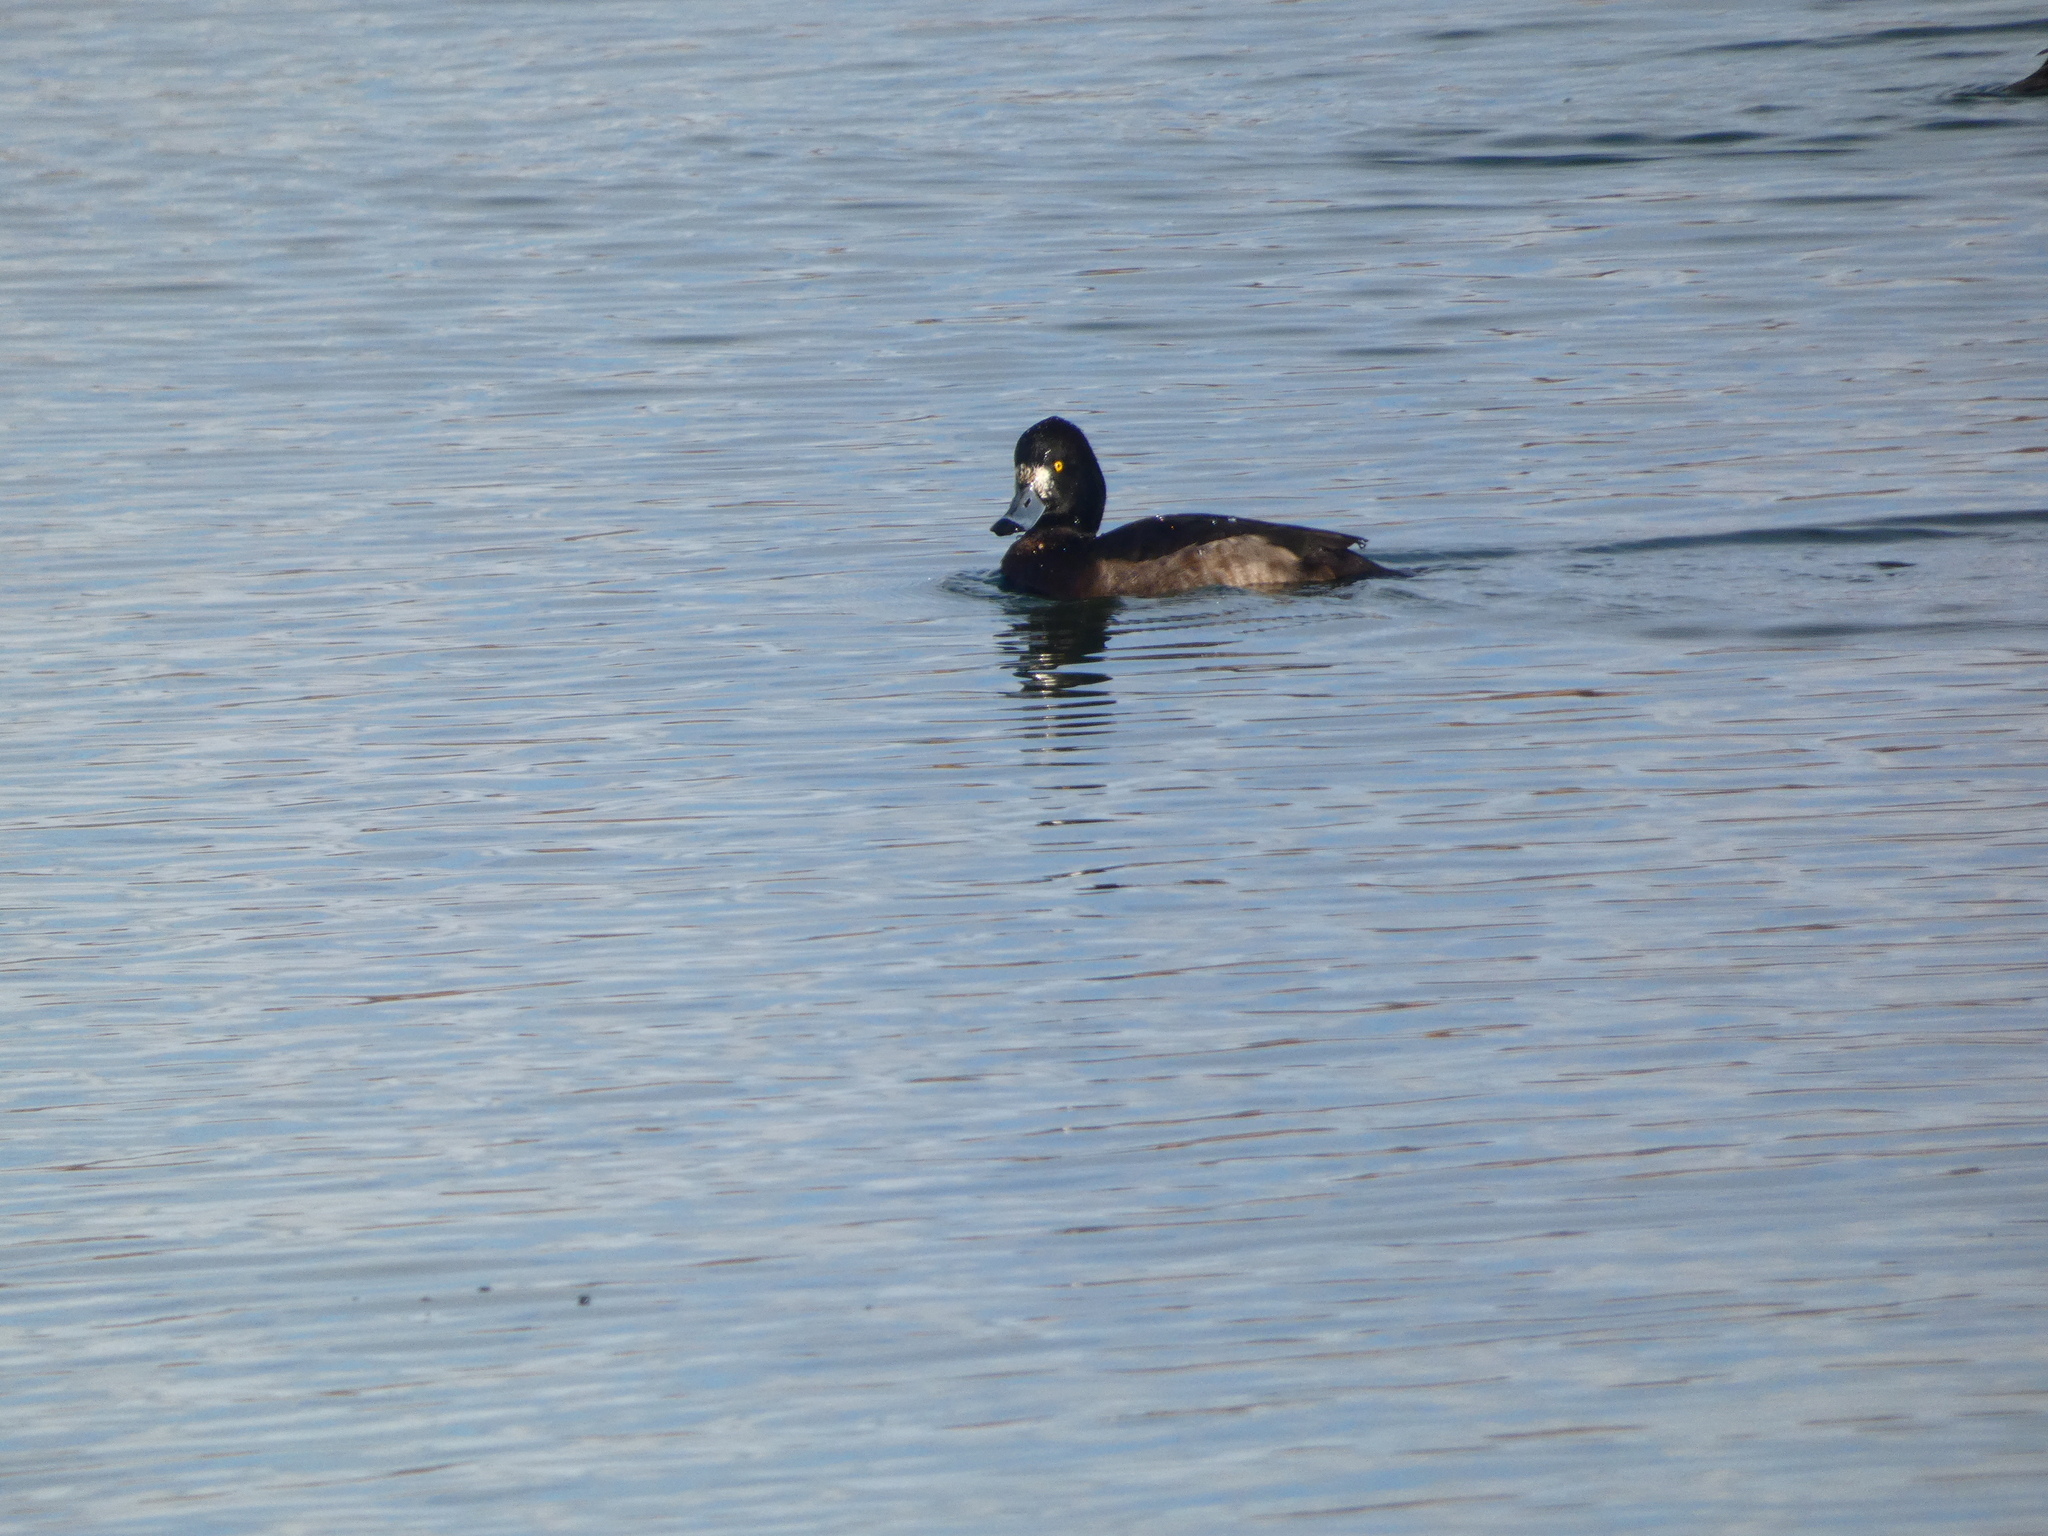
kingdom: Animalia
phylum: Chordata
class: Aves
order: Anseriformes
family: Anatidae
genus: Aythya
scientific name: Aythya fuligula
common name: Tufted duck
